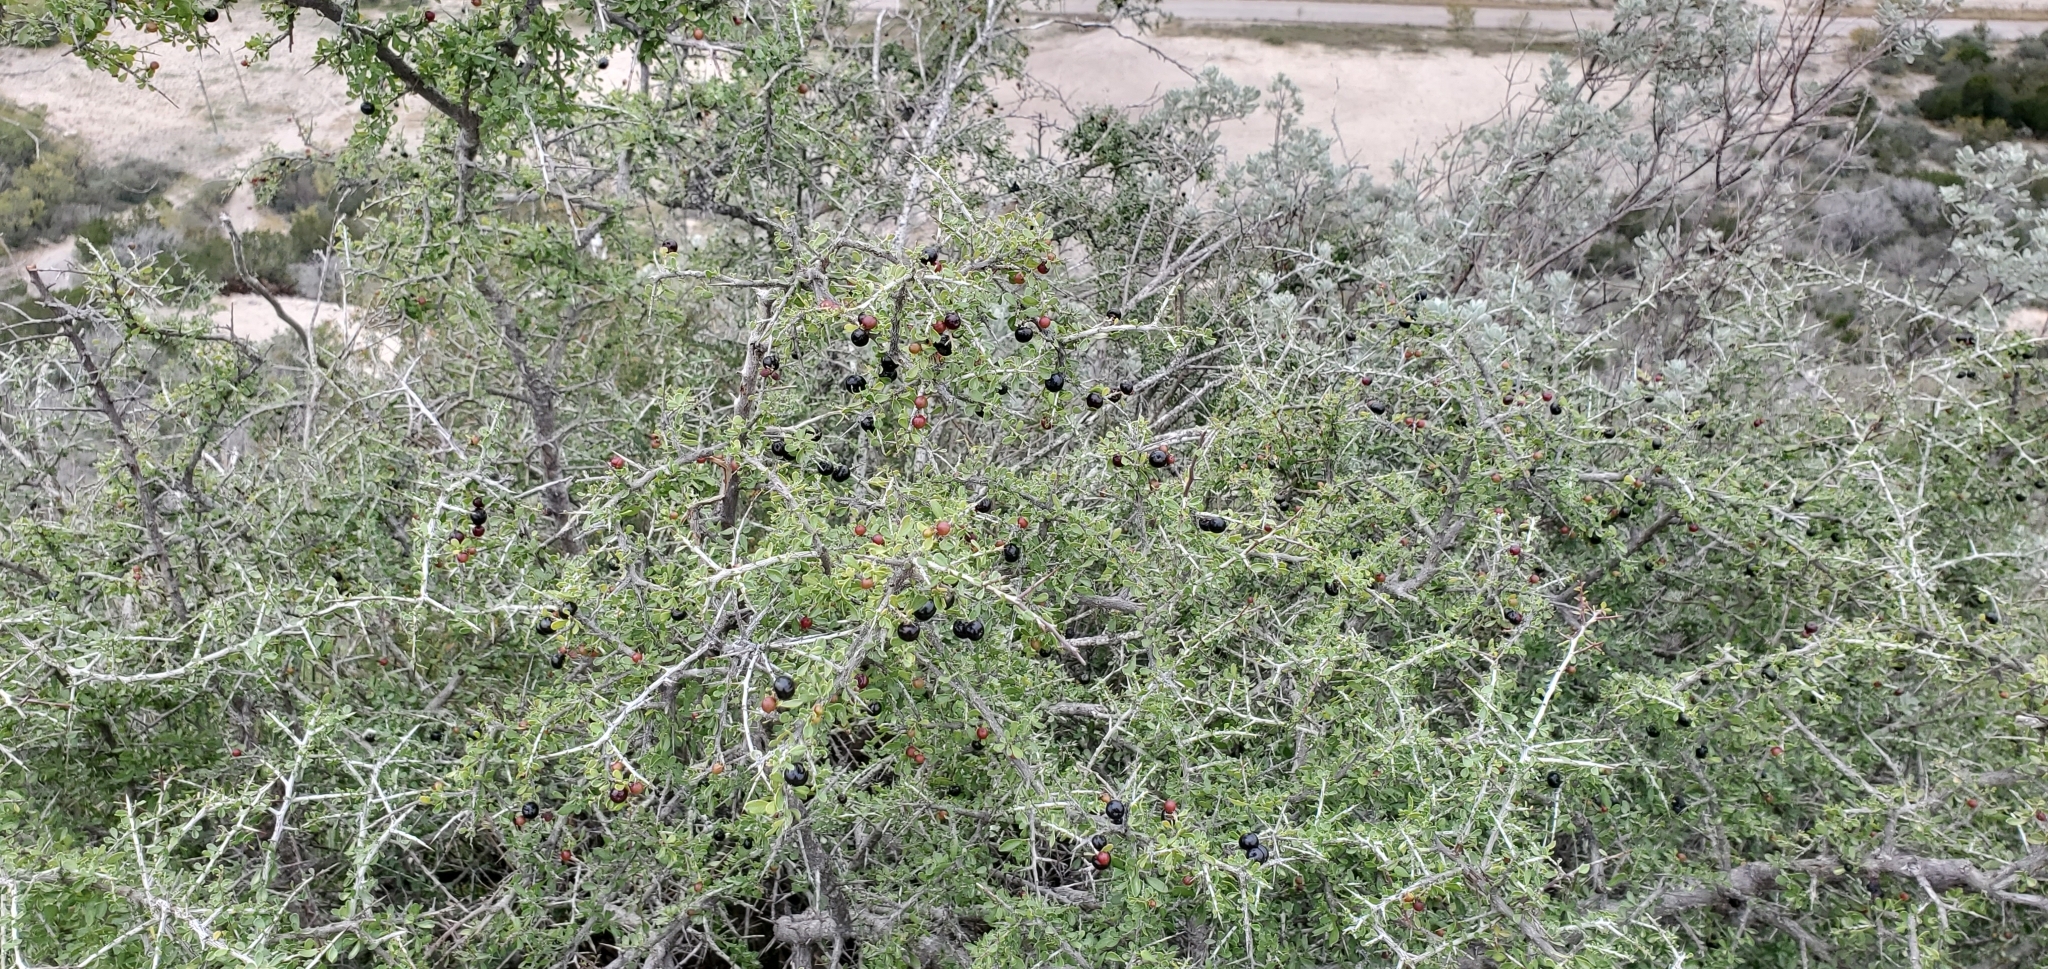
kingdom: Plantae
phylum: Tracheophyta
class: Magnoliopsida
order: Rosales
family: Rhamnaceae
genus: Condalia
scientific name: Condalia viridis
